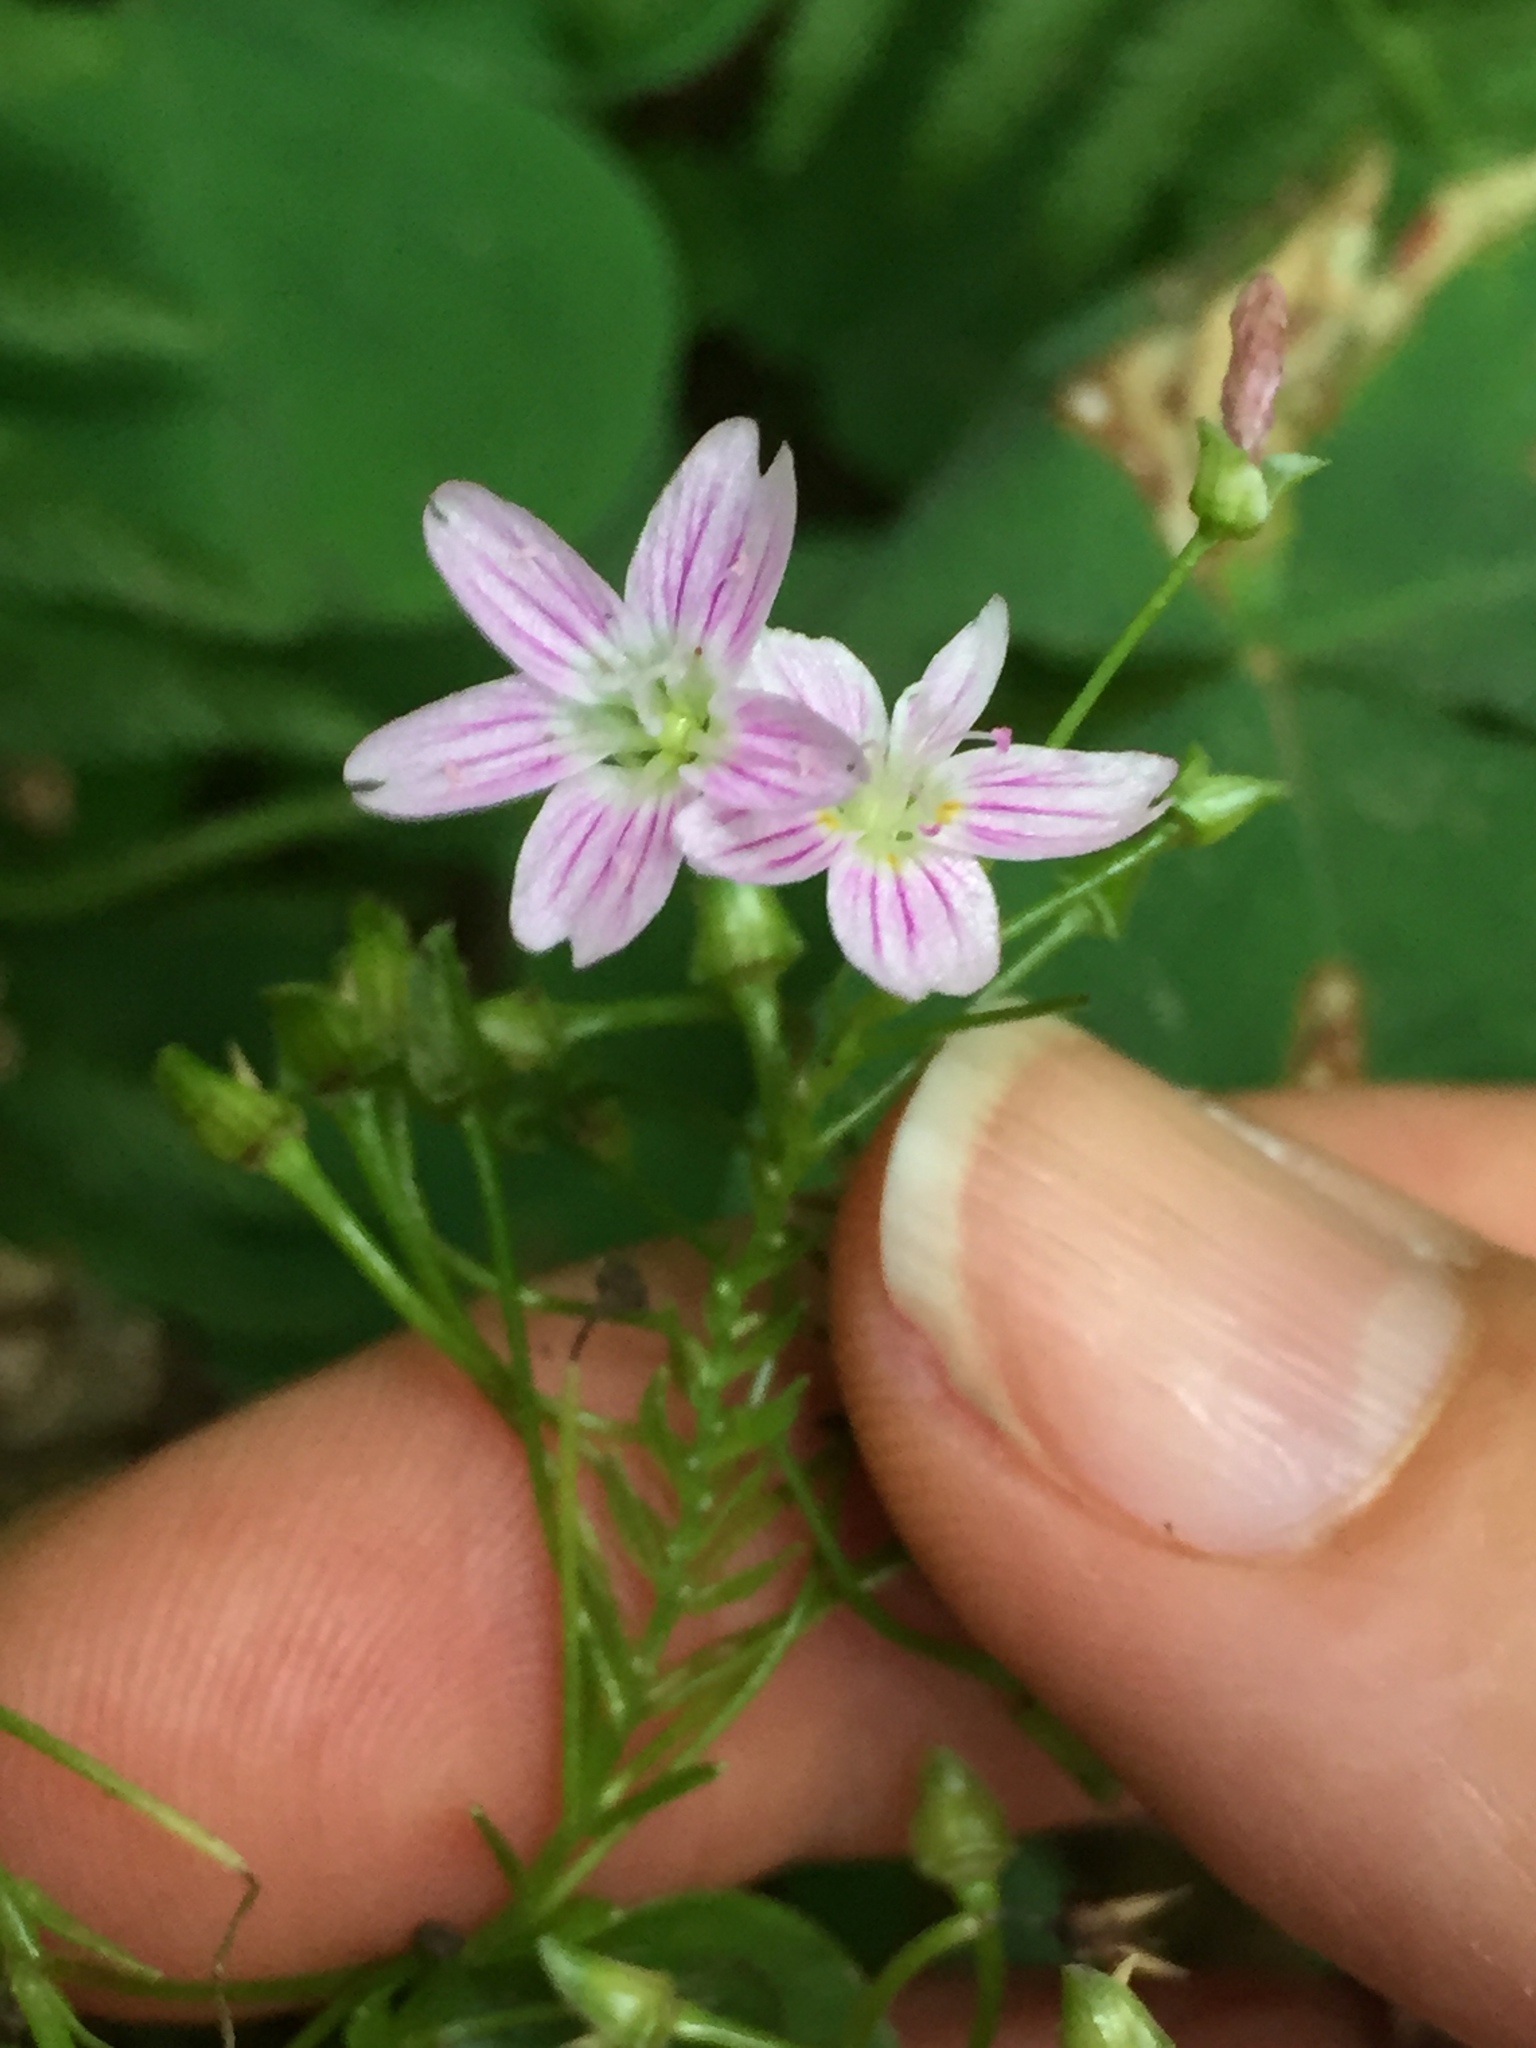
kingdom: Plantae
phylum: Tracheophyta
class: Magnoliopsida
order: Caryophyllales
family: Montiaceae
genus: Claytonia
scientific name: Claytonia sibirica
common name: Pink purslane
